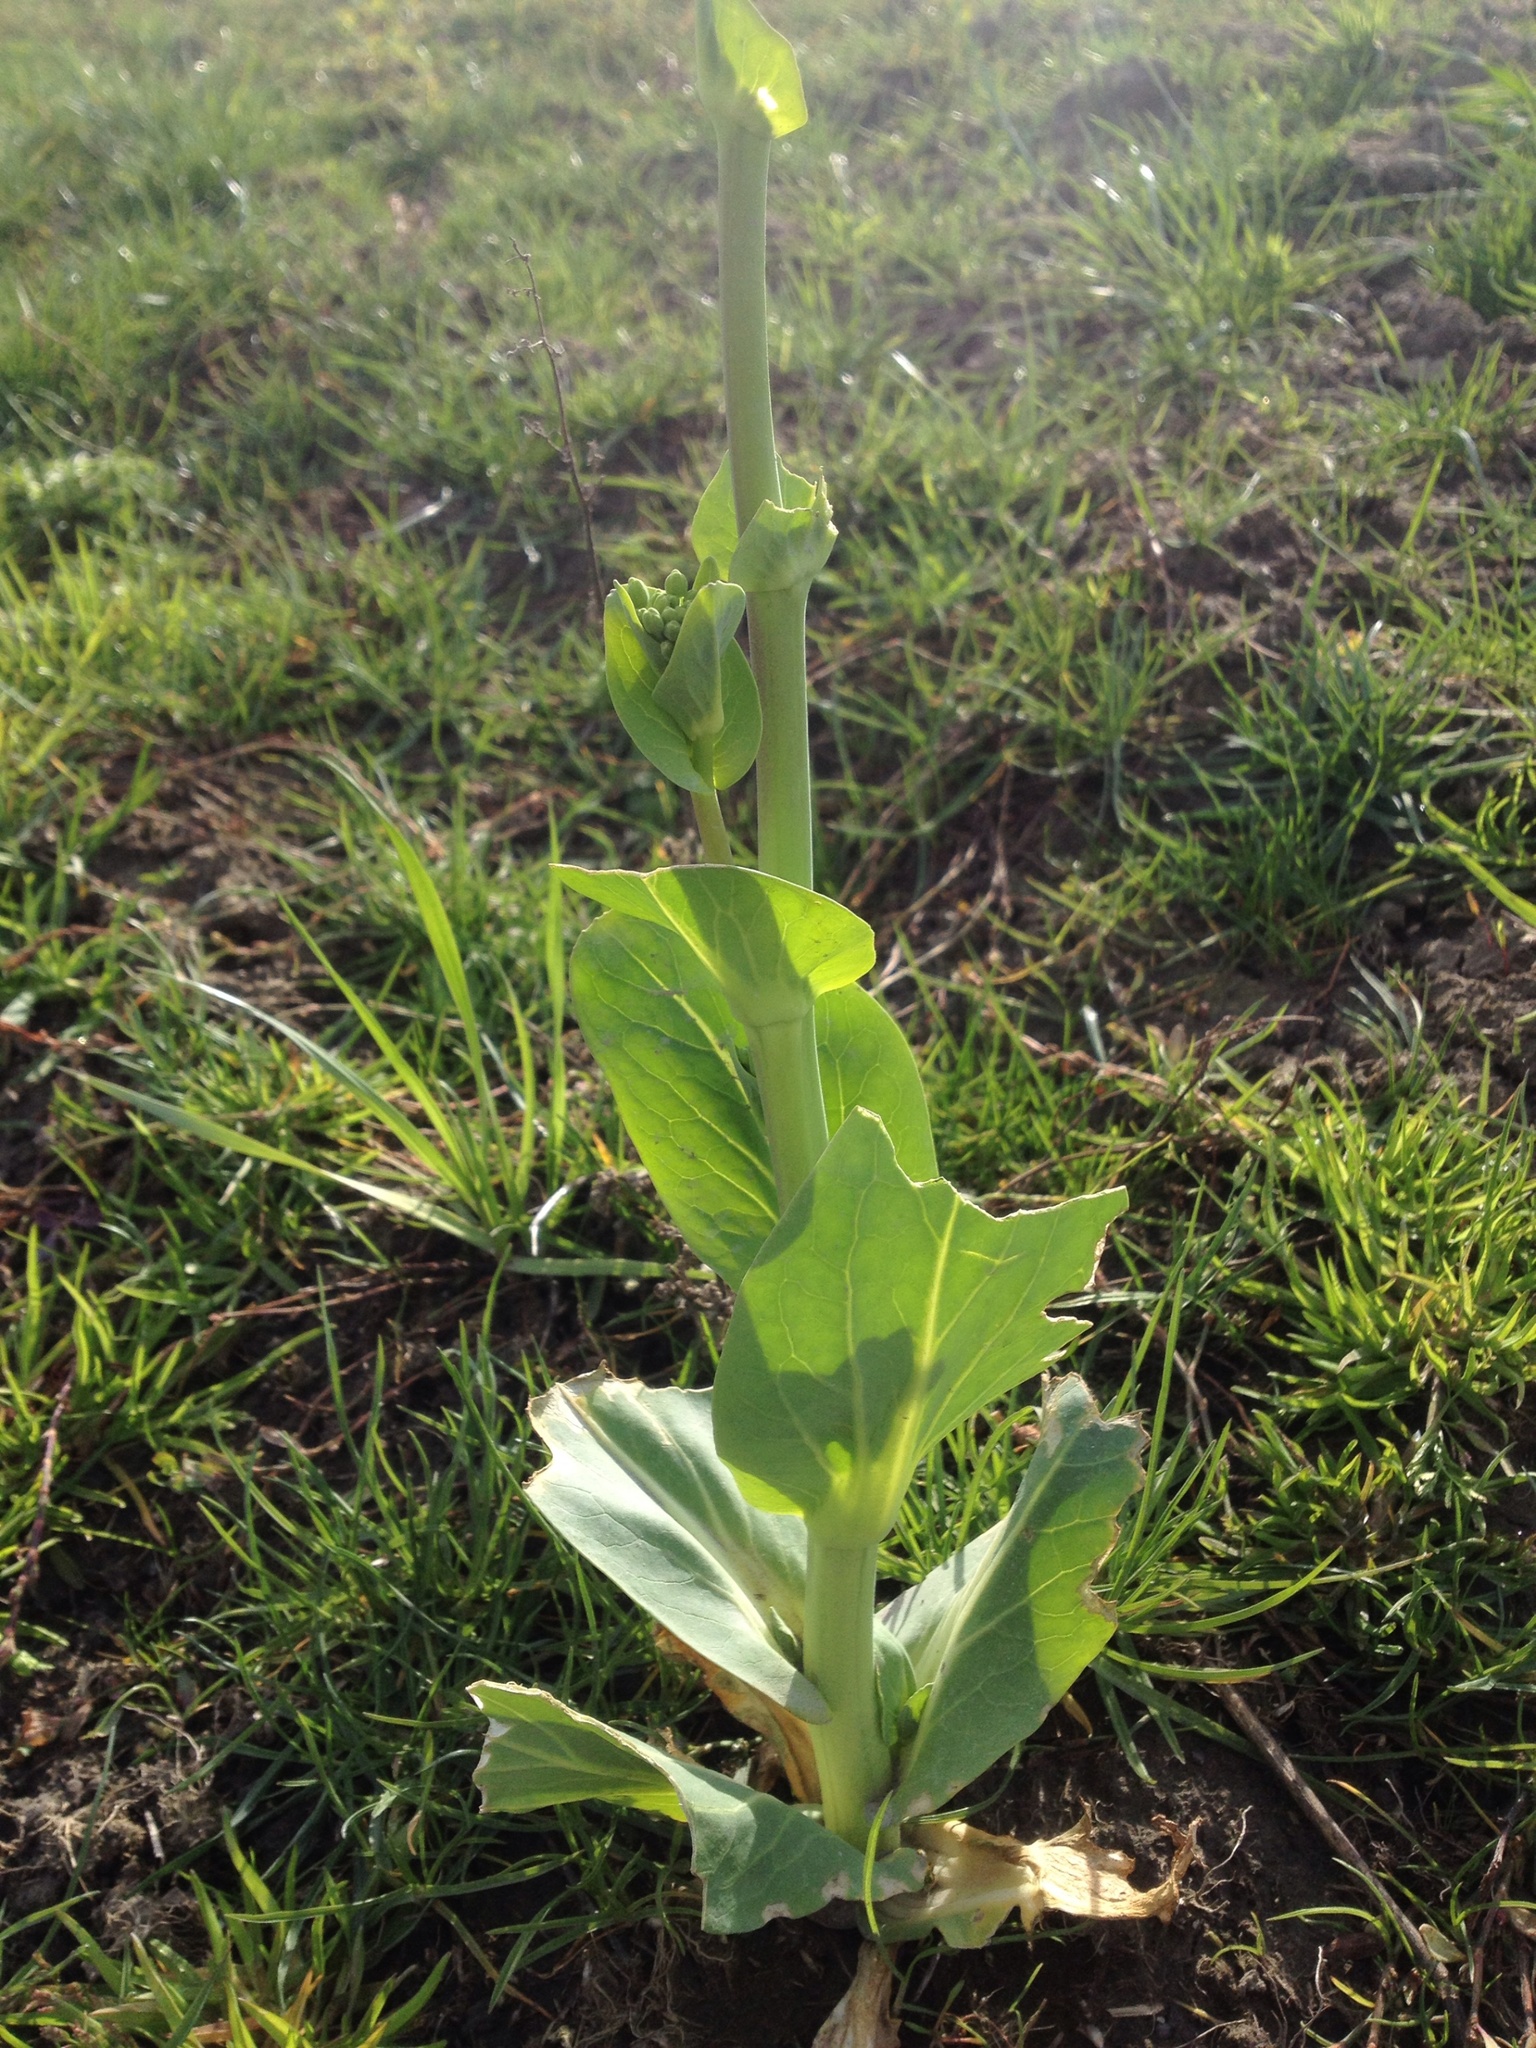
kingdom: Plantae
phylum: Tracheophyta
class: Magnoliopsida
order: Brassicales
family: Brassicaceae
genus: Brassica
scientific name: Brassica rapa
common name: Field mustard
